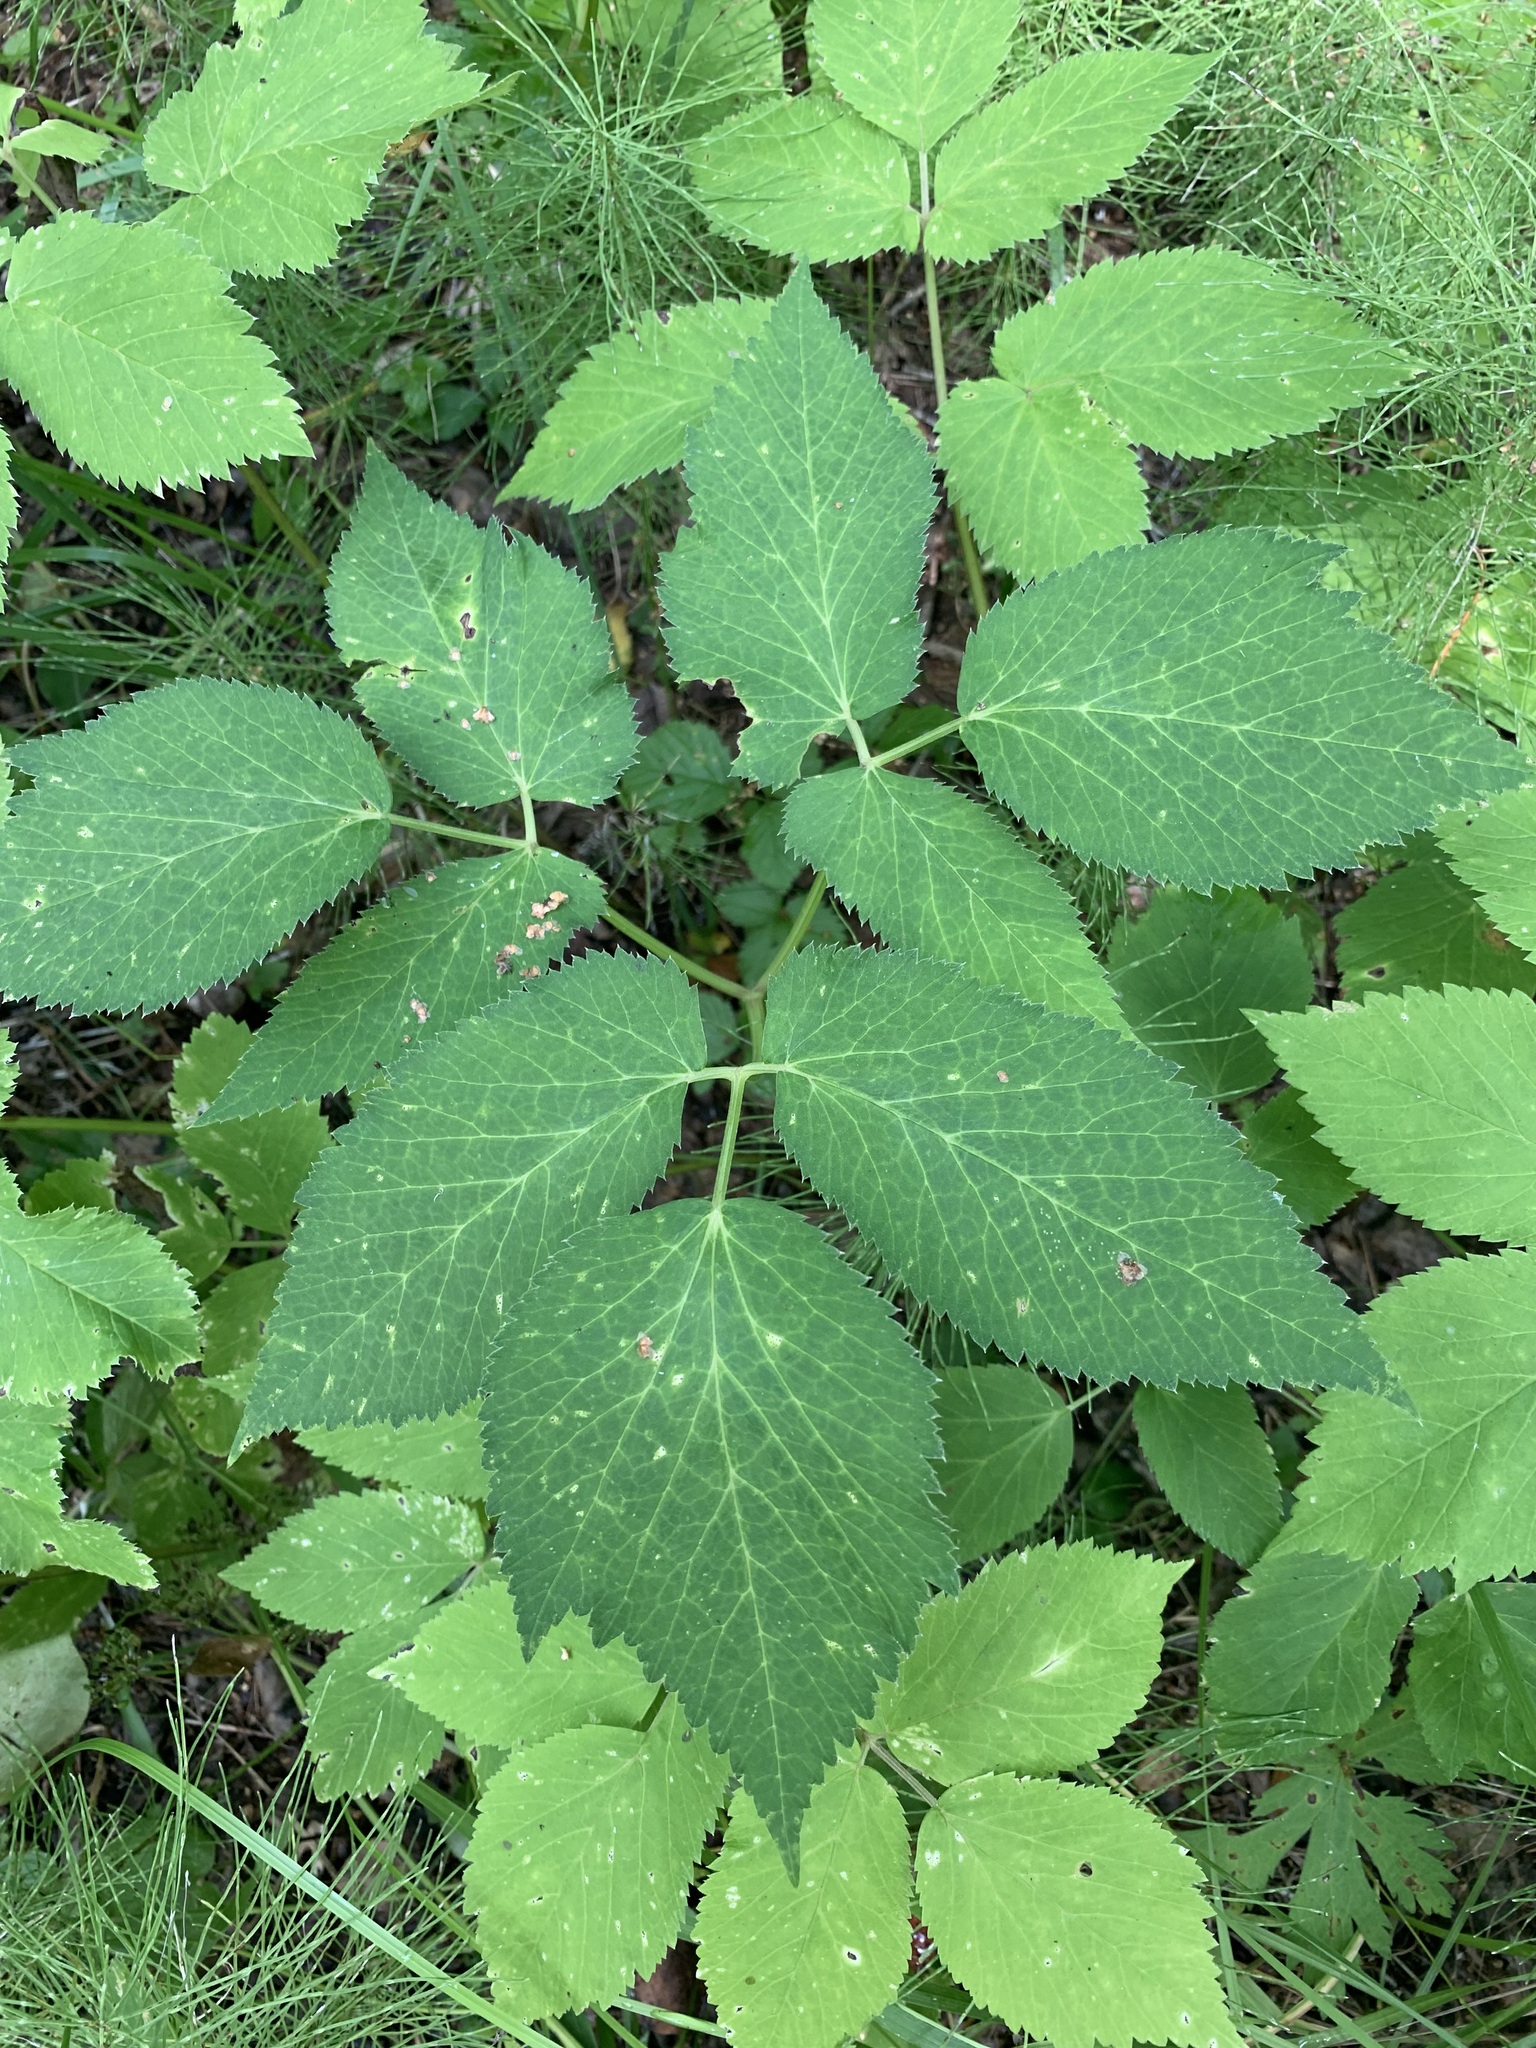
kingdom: Plantae
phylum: Tracheophyta
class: Magnoliopsida
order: Apiales
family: Apiaceae
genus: Aegopodium
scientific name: Aegopodium podagraria
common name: Ground-elder
